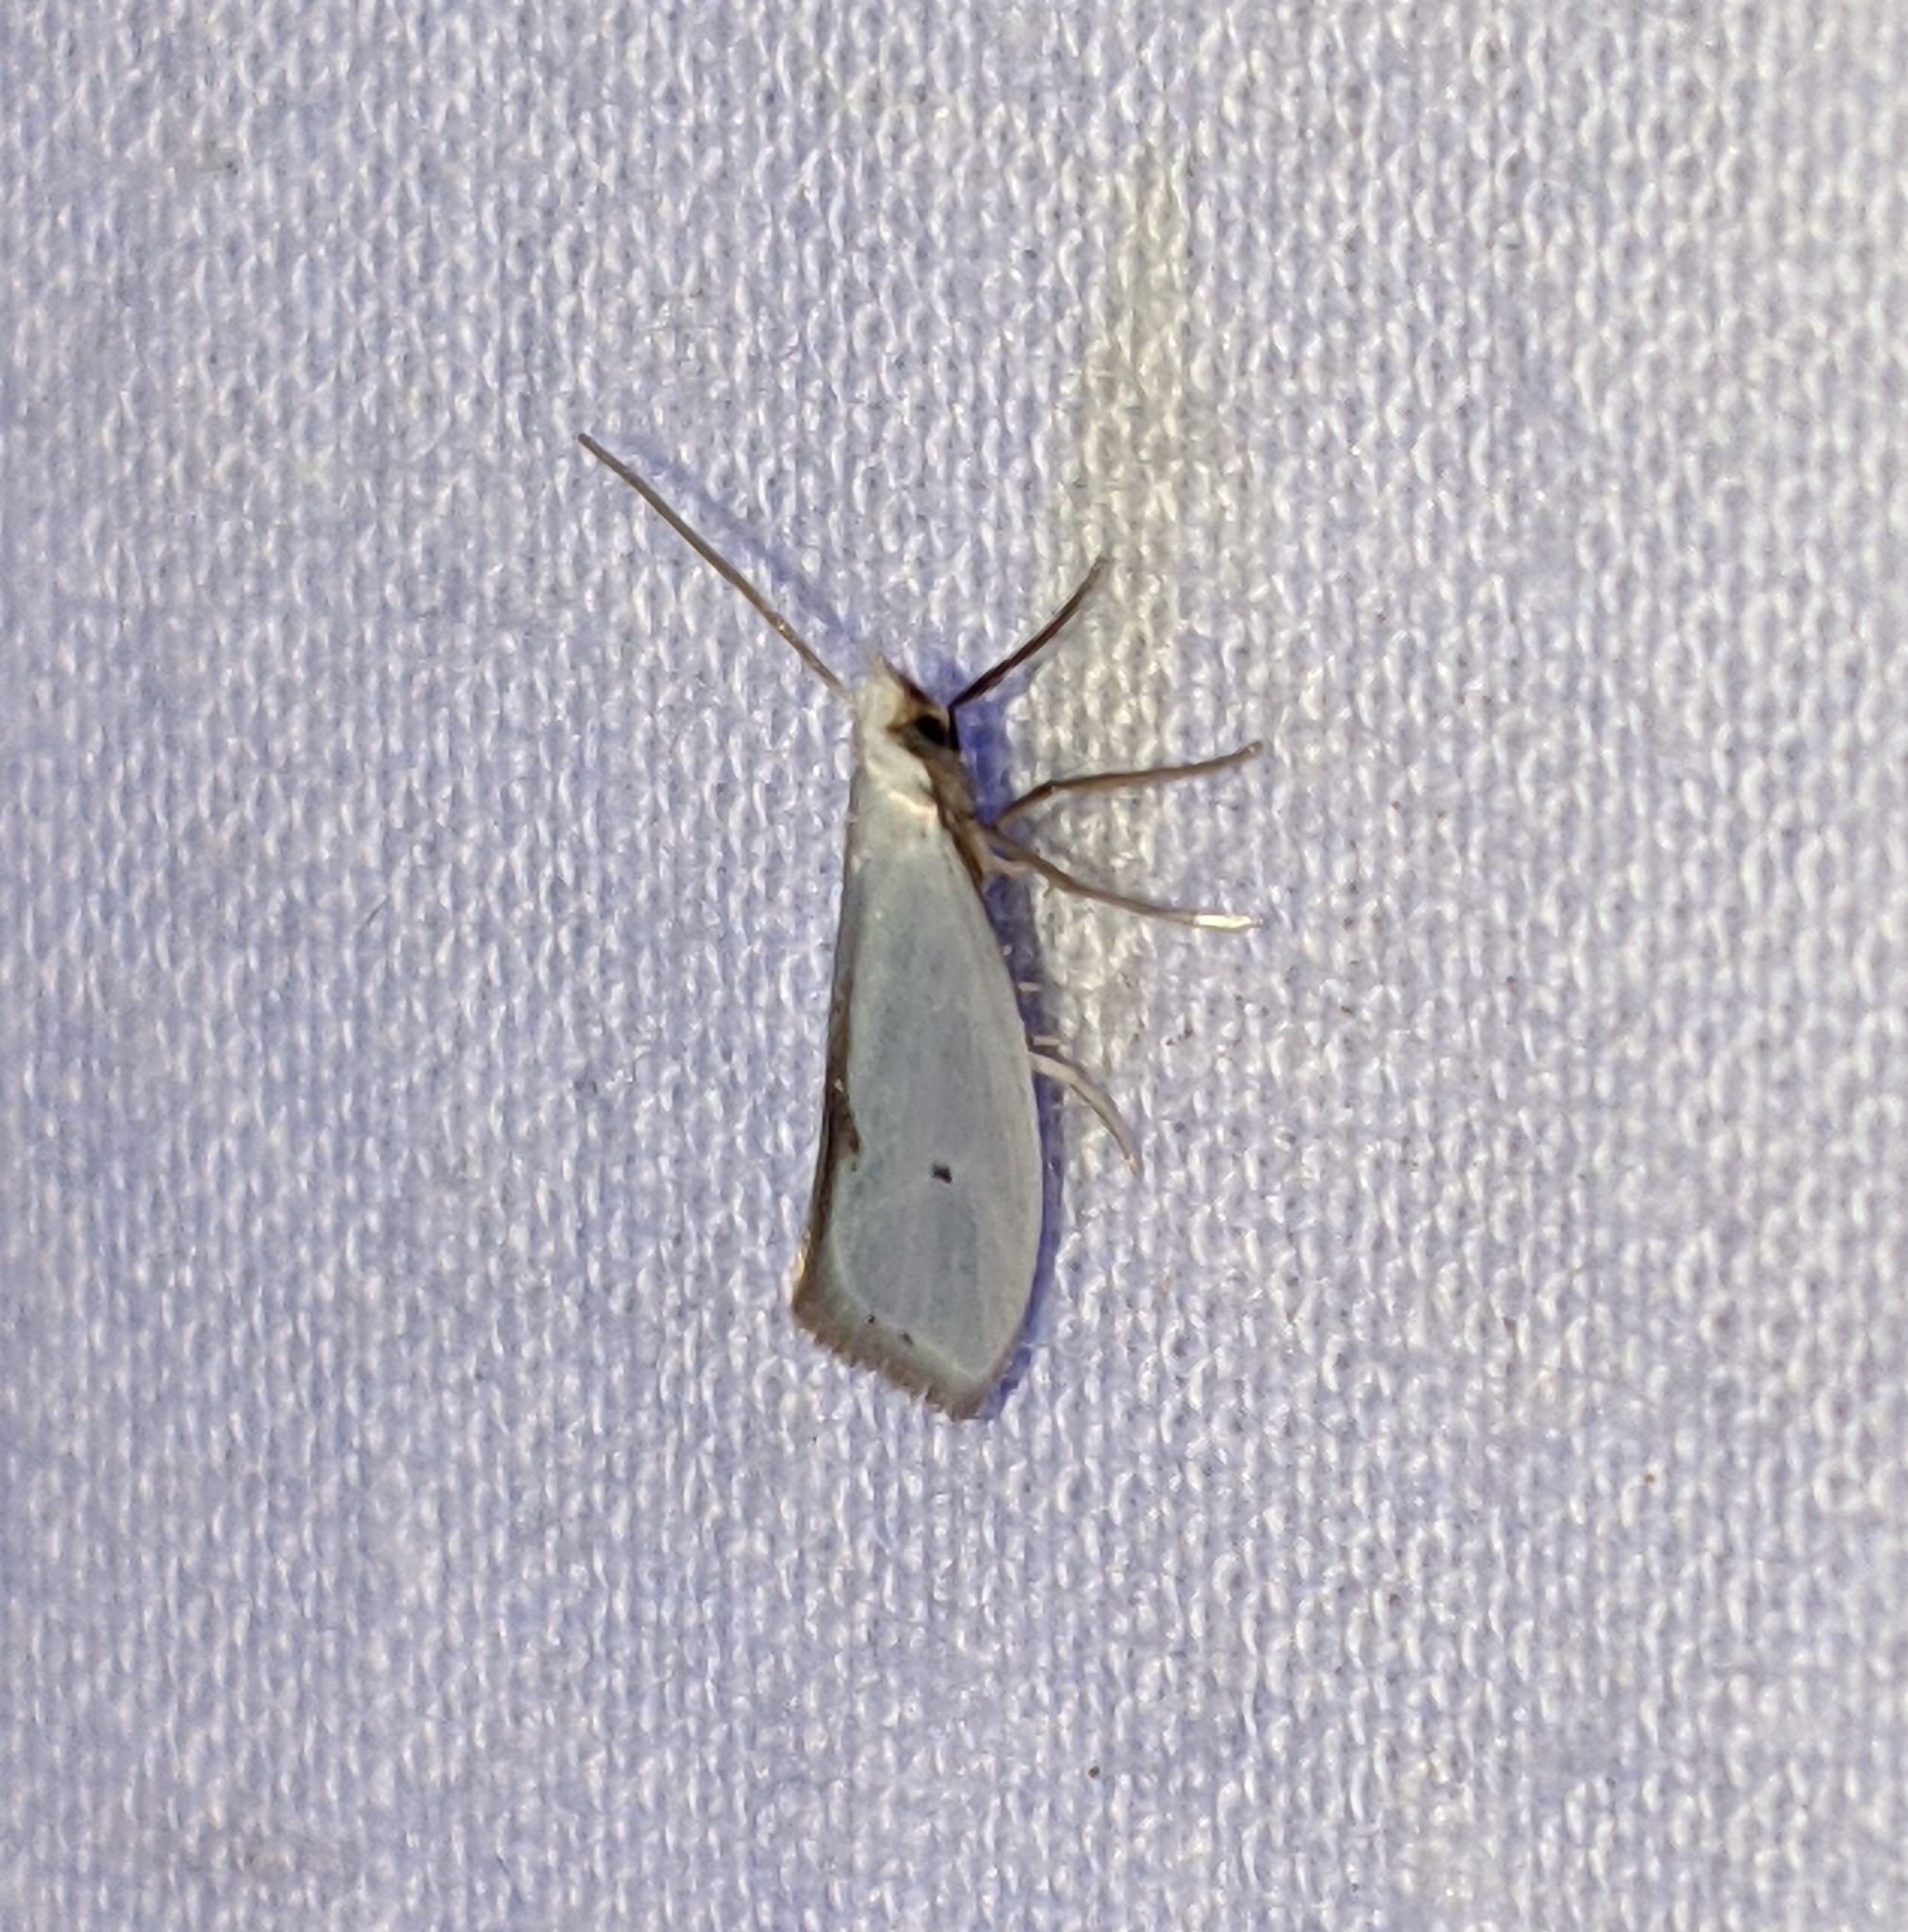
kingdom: Animalia
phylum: Arthropoda
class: Insecta
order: Lepidoptera
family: Yponomeutidae
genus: Eucalantica
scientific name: Eucalantica polita
